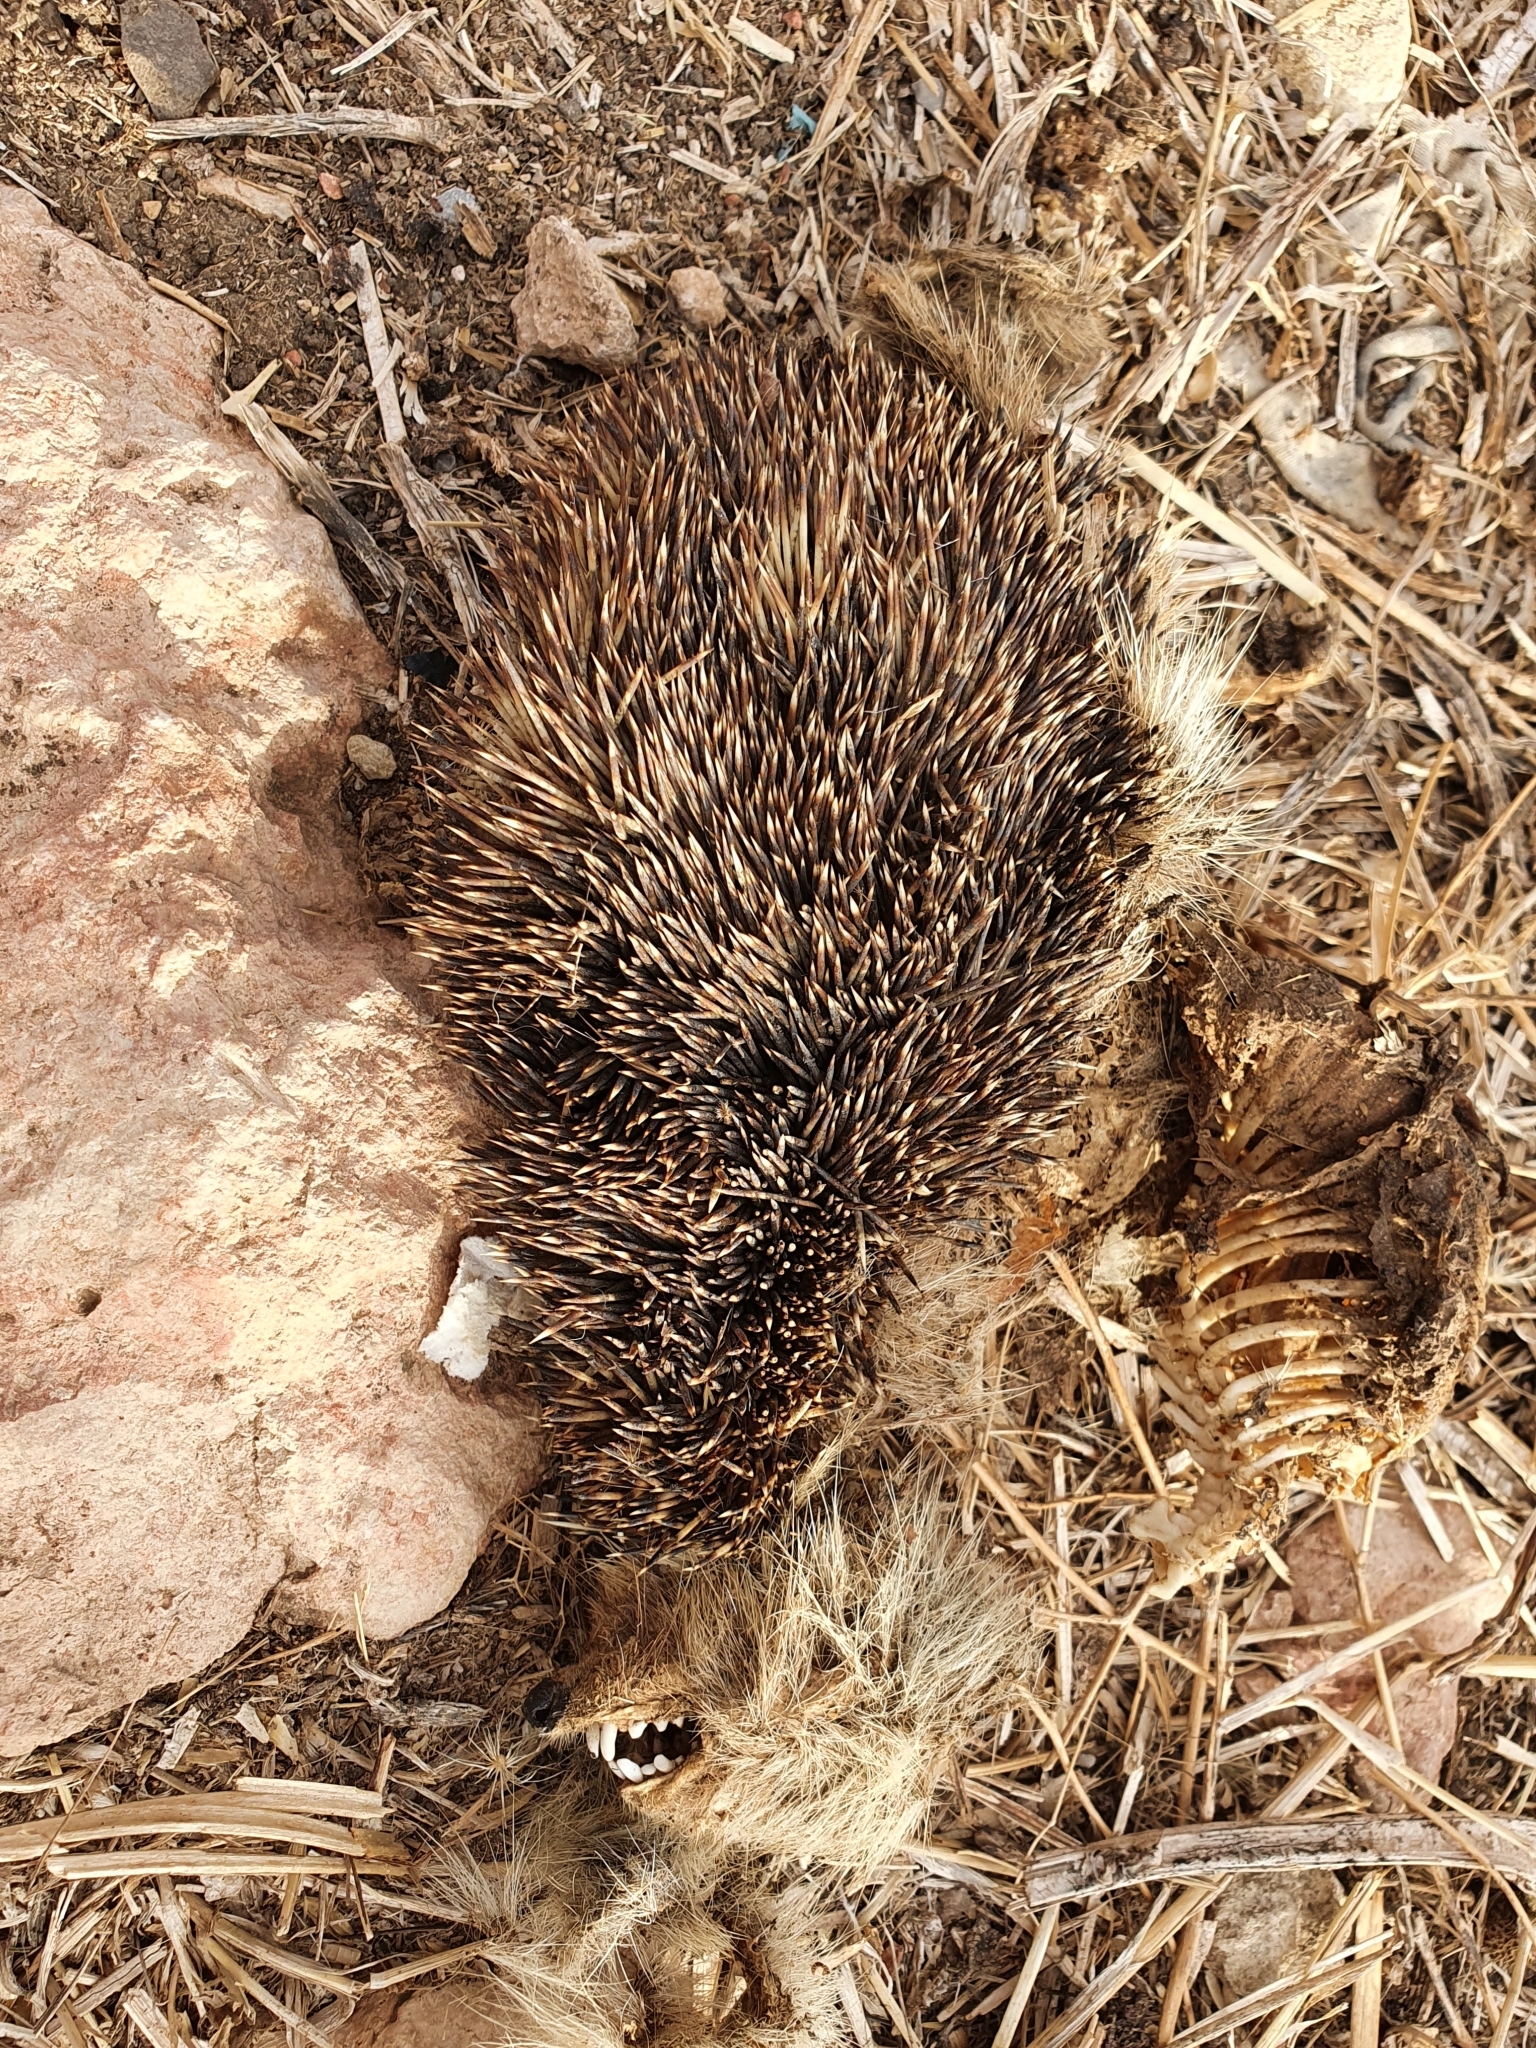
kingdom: Animalia
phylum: Chordata
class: Mammalia
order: Erinaceomorpha
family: Erinaceidae
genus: Atelerix
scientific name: Atelerix algirus
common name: North african hedgehog
